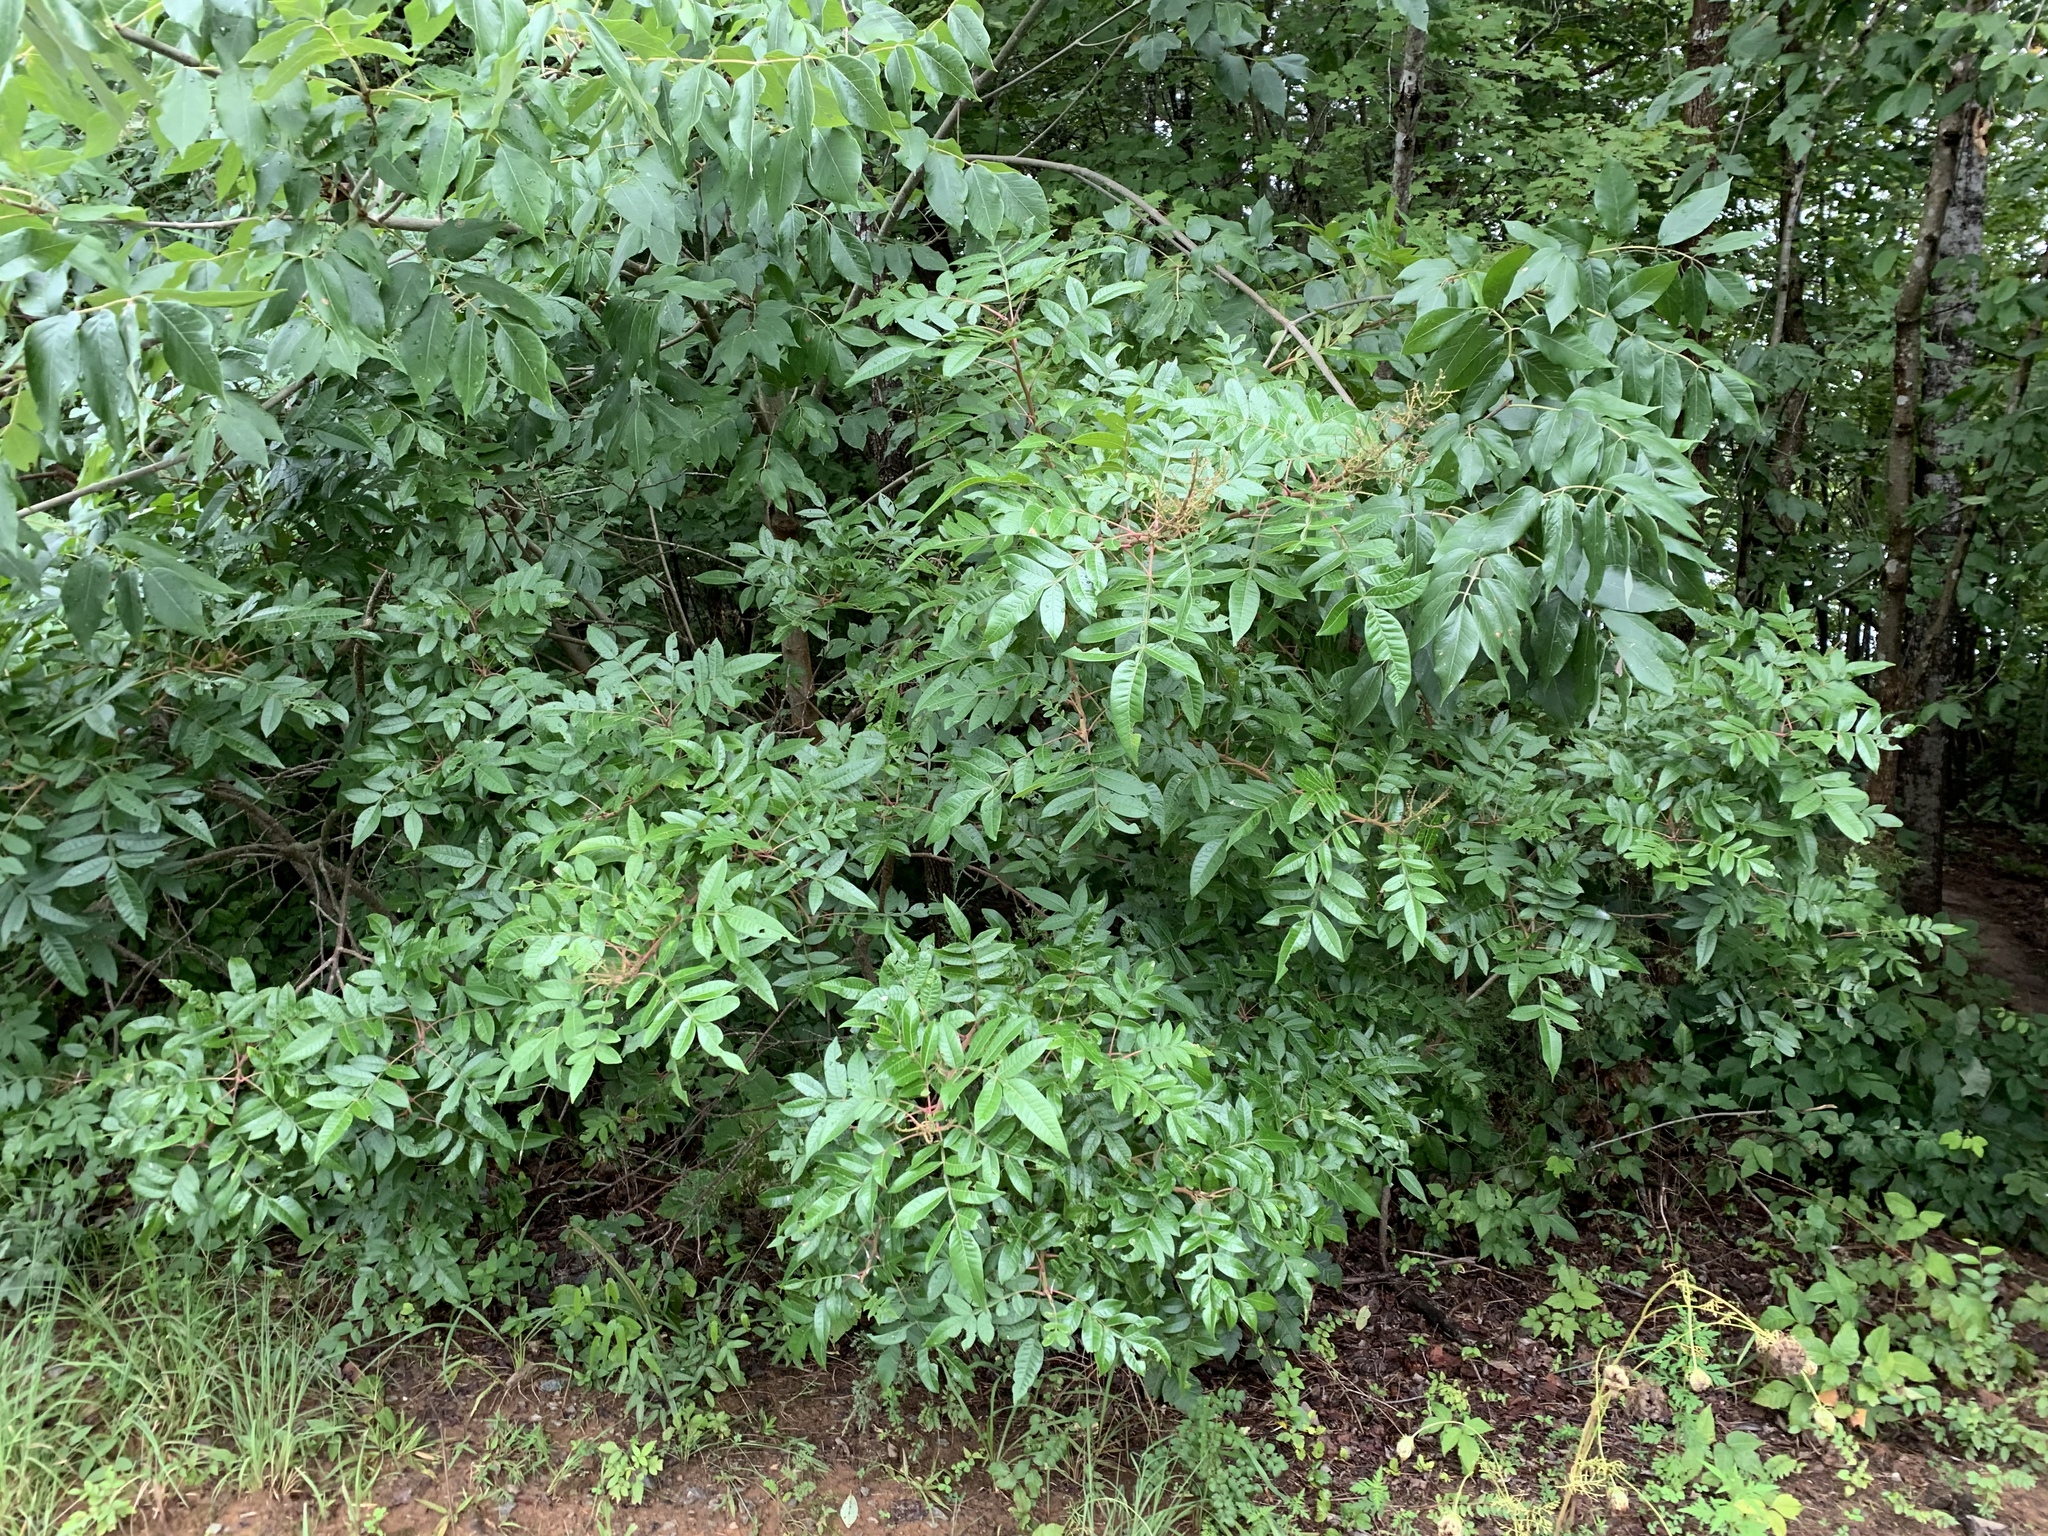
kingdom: Plantae
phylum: Tracheophyta
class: Magnoliopsida
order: Sapindales
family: Anacardiaceae
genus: Rhus
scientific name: Rhus copallina
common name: Shining sumac
